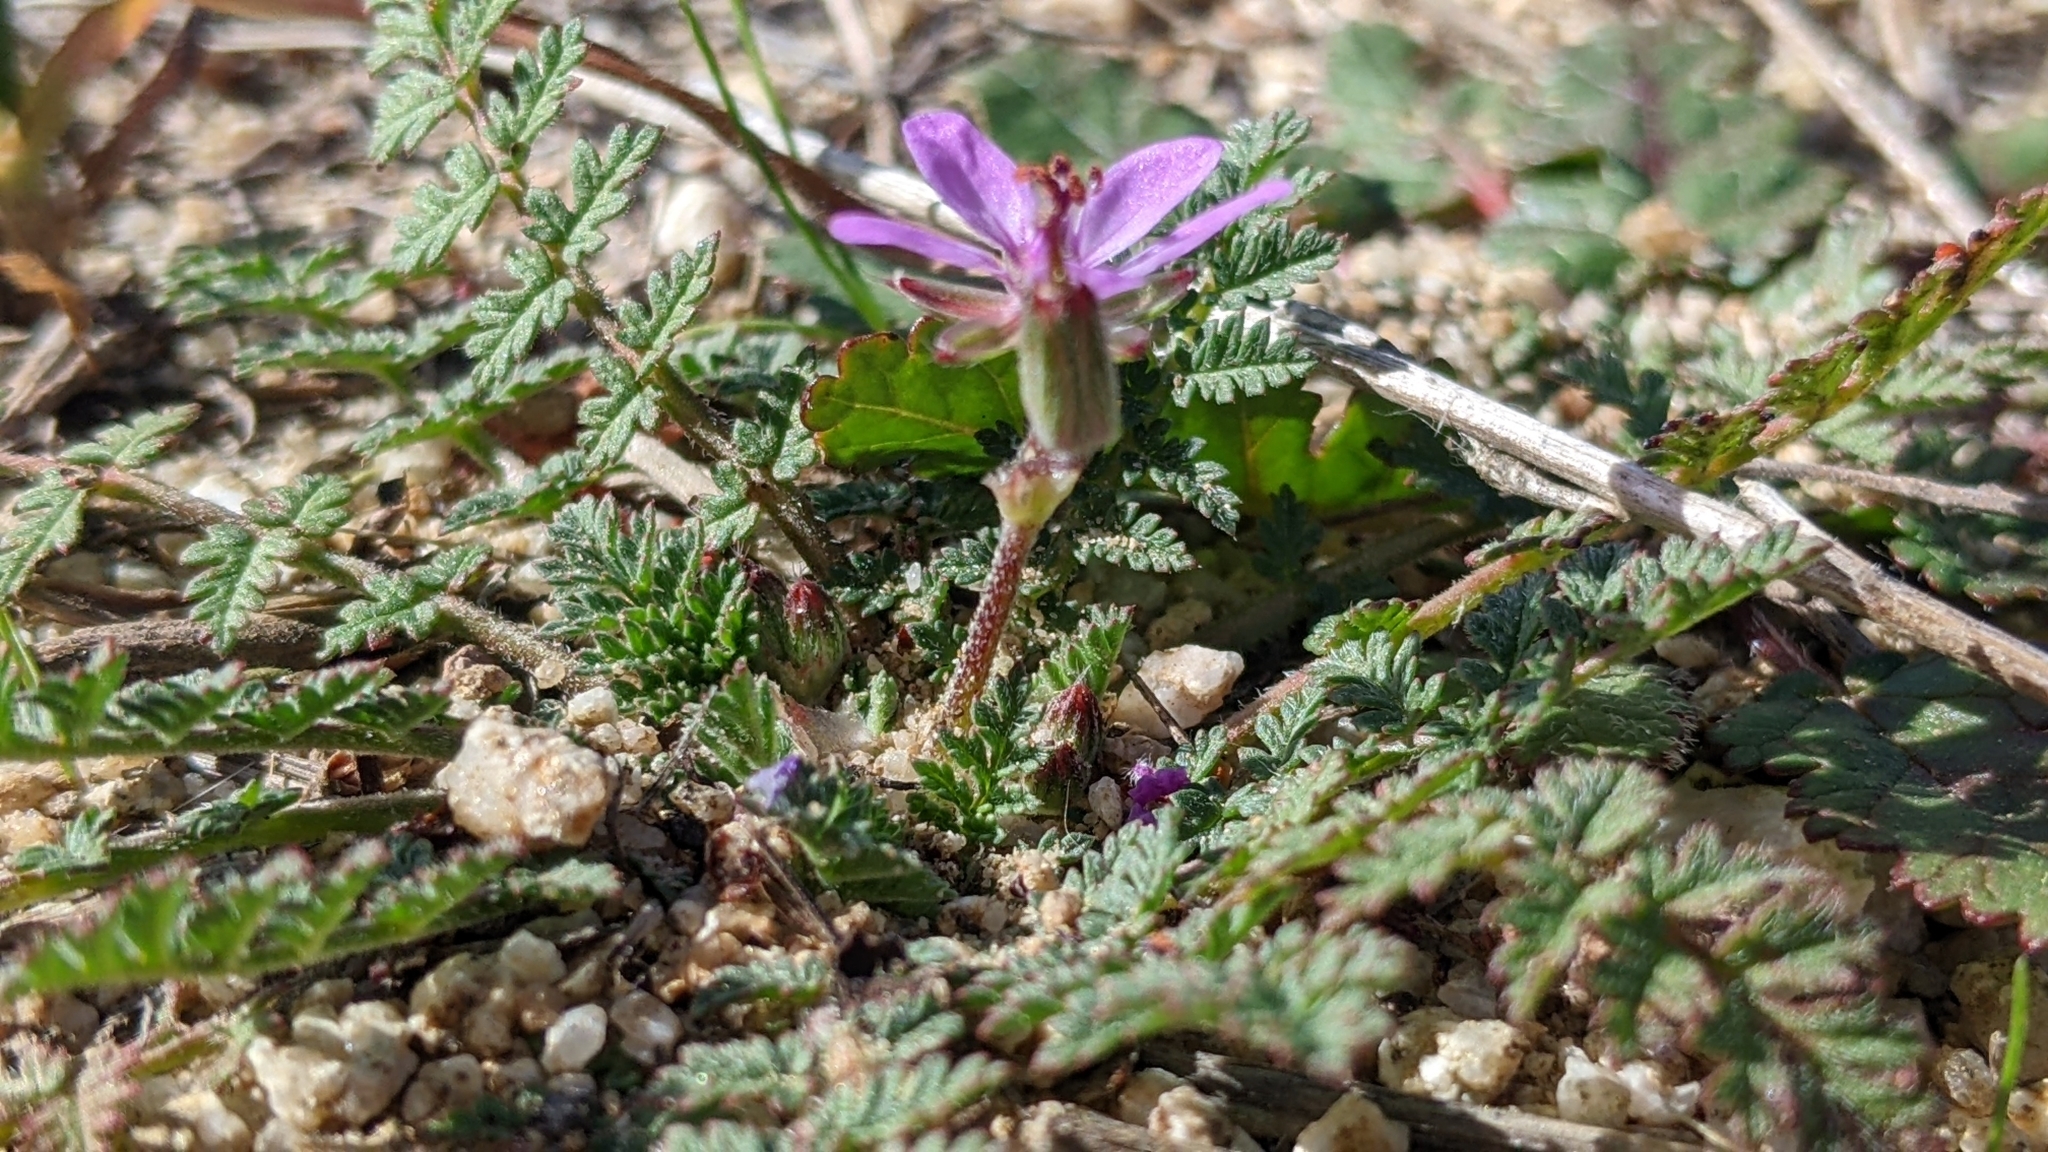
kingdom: Plantae
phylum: Tracheophyta
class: Magnoliopsida
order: Geraniales
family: Geraniaceae
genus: Erodium
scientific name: Erodium cicutarium
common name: Common stork's-bill
